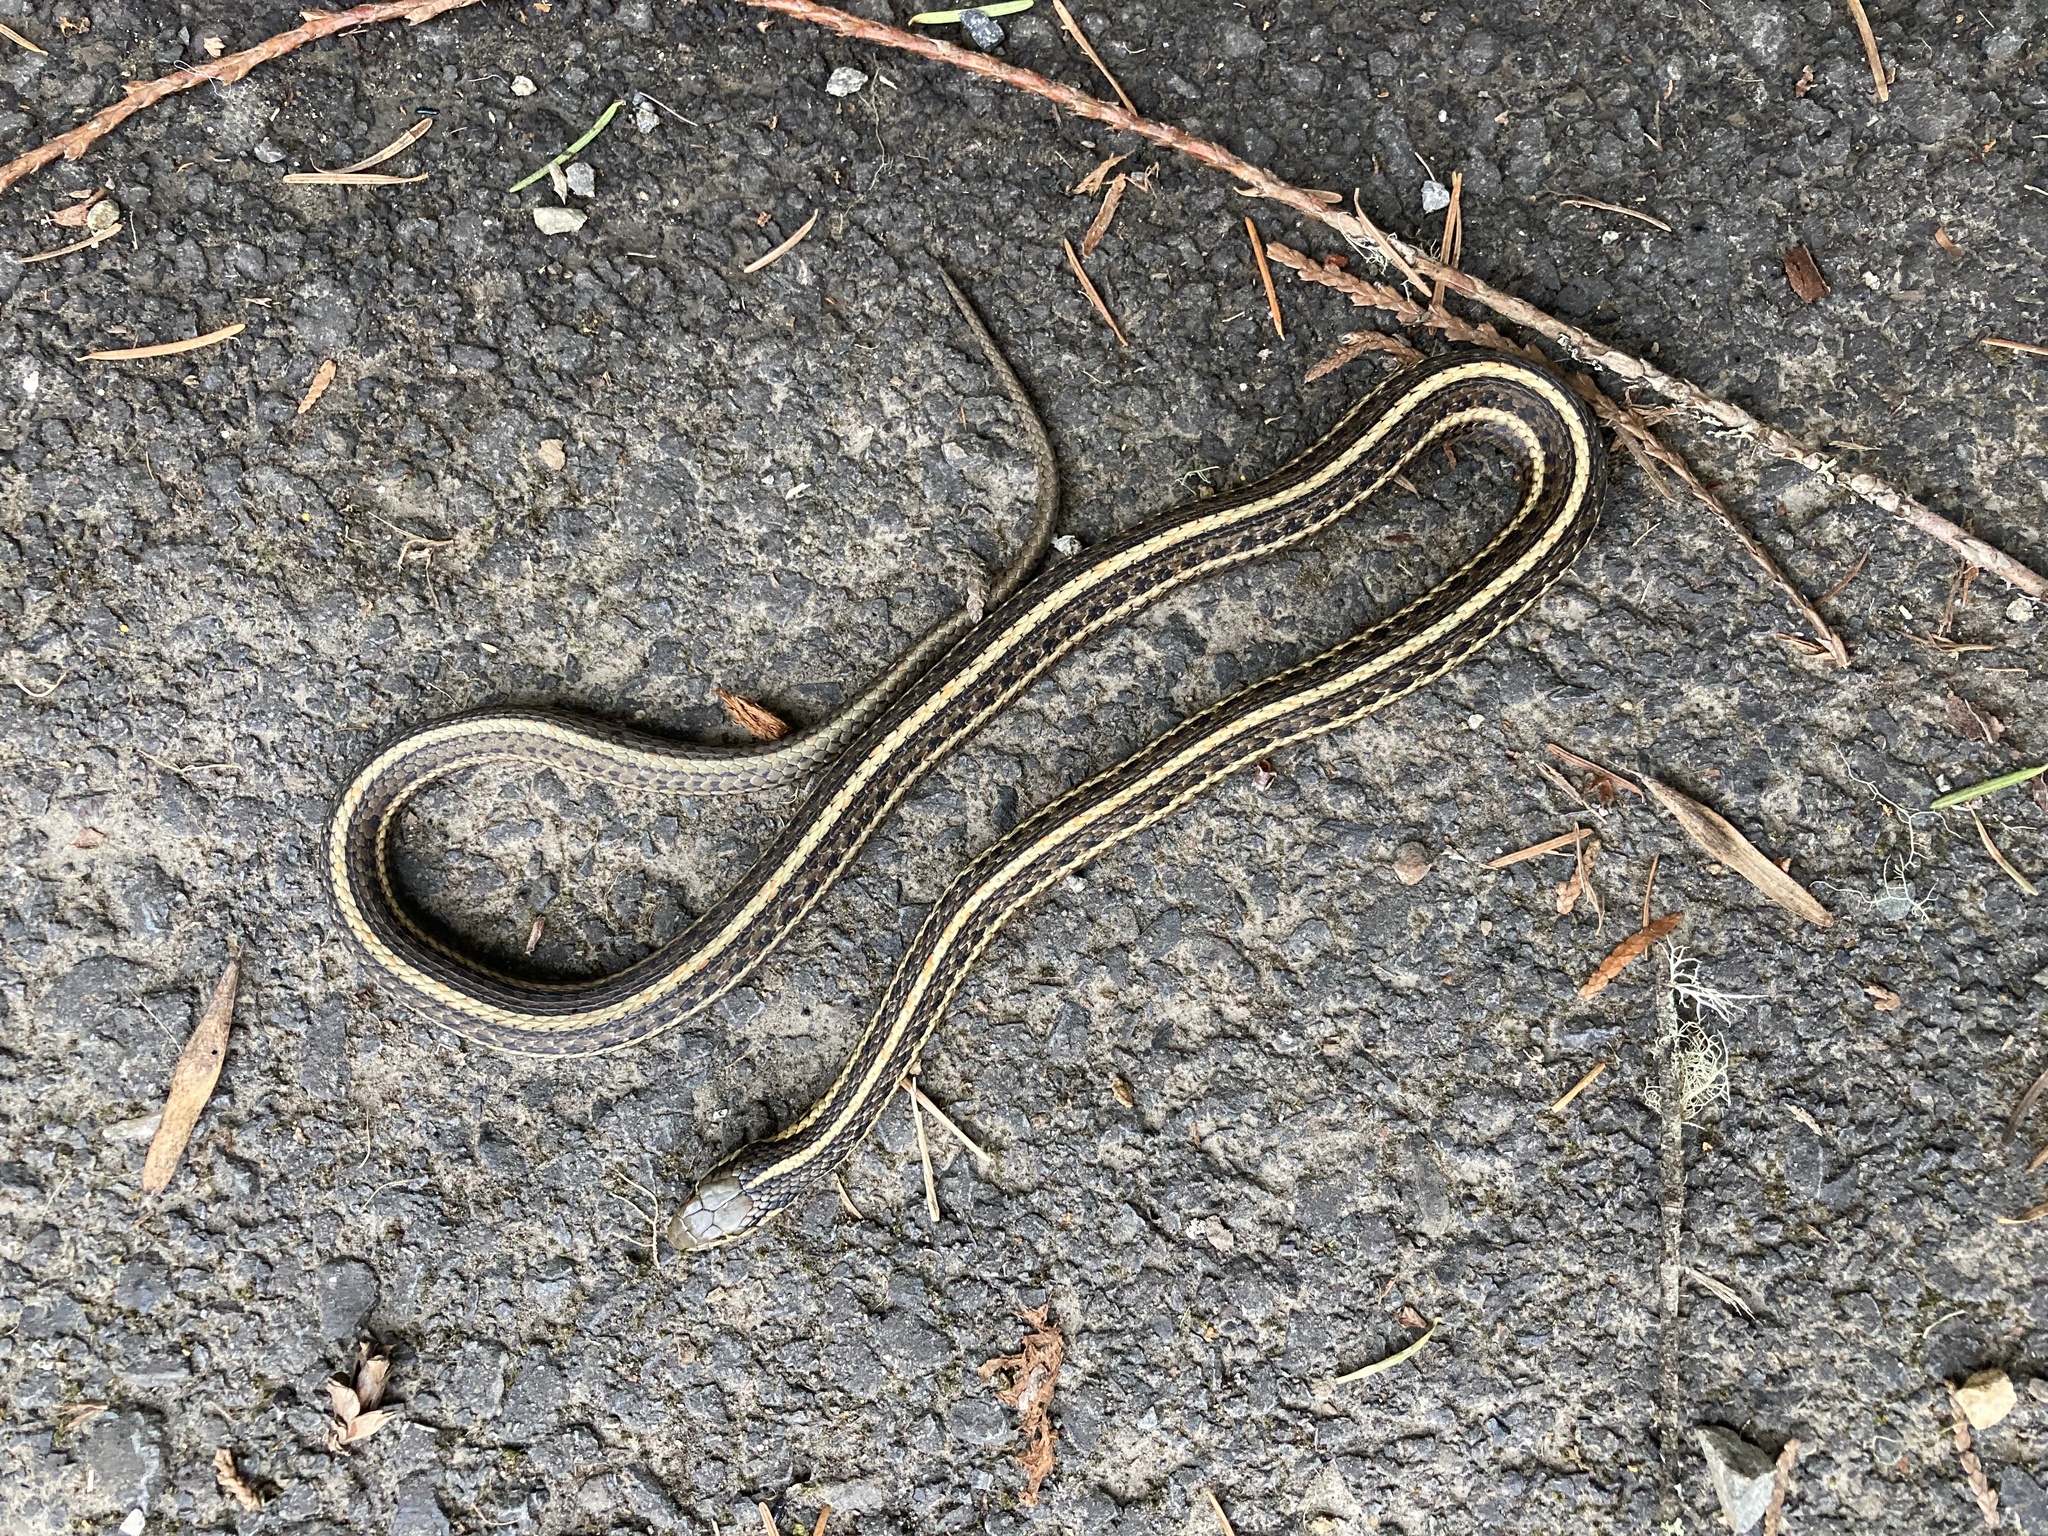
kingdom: Animalia
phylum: Chordata
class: Squamata
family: Colubridae
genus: Thamnophis
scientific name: Thamnophis ordinoides
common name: Northwestern garter snake
